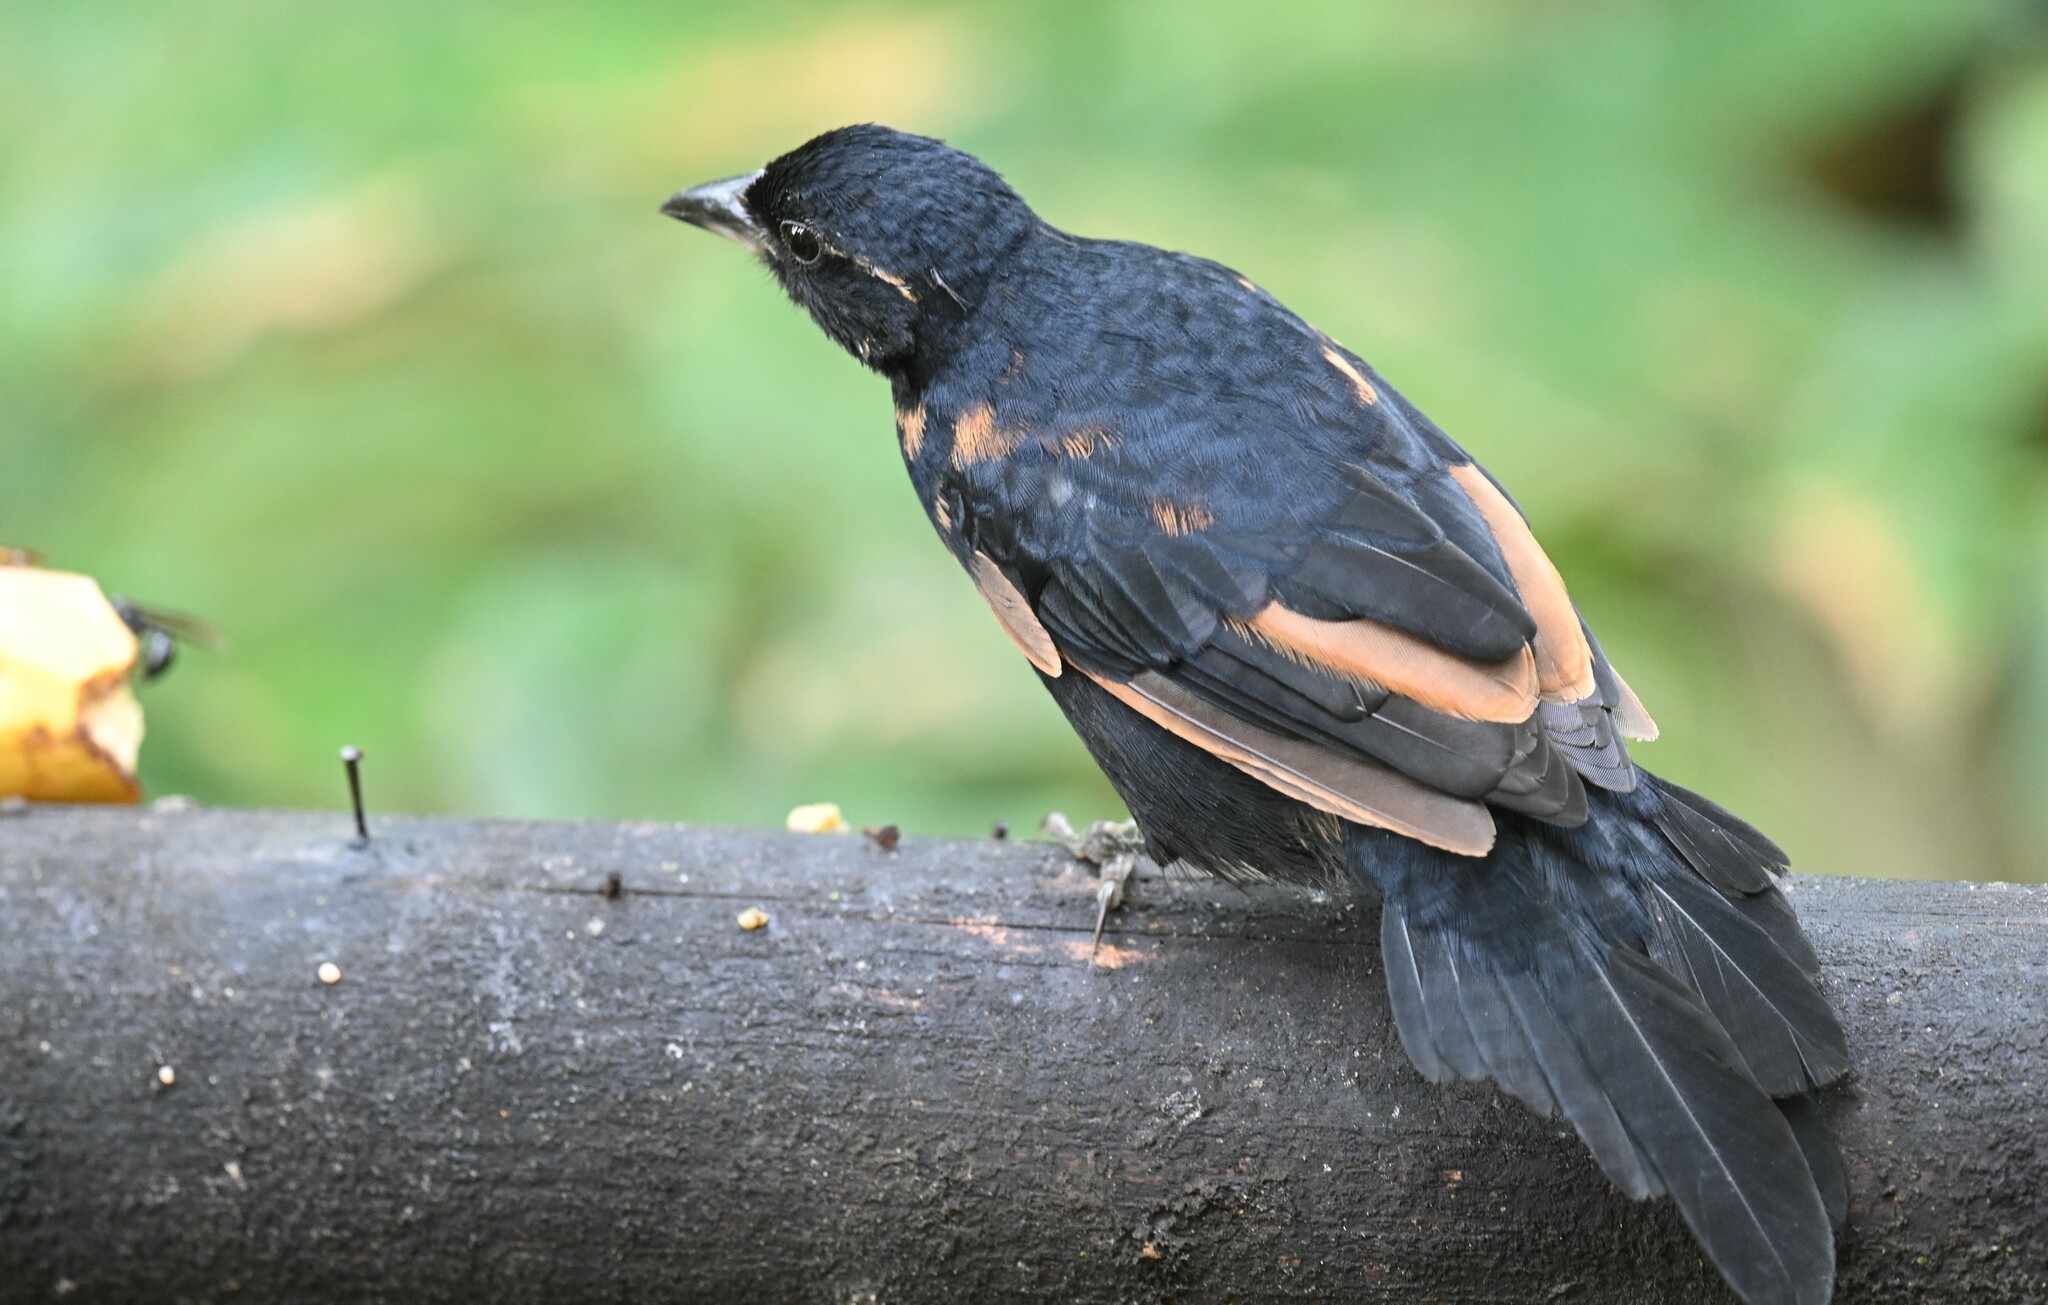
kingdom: Animalia
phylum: Chordata
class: Aves
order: Passeriformes
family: Thraupidae
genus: Tachyphonus
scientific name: Tachyphonus rufus
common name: White-lined tanager
